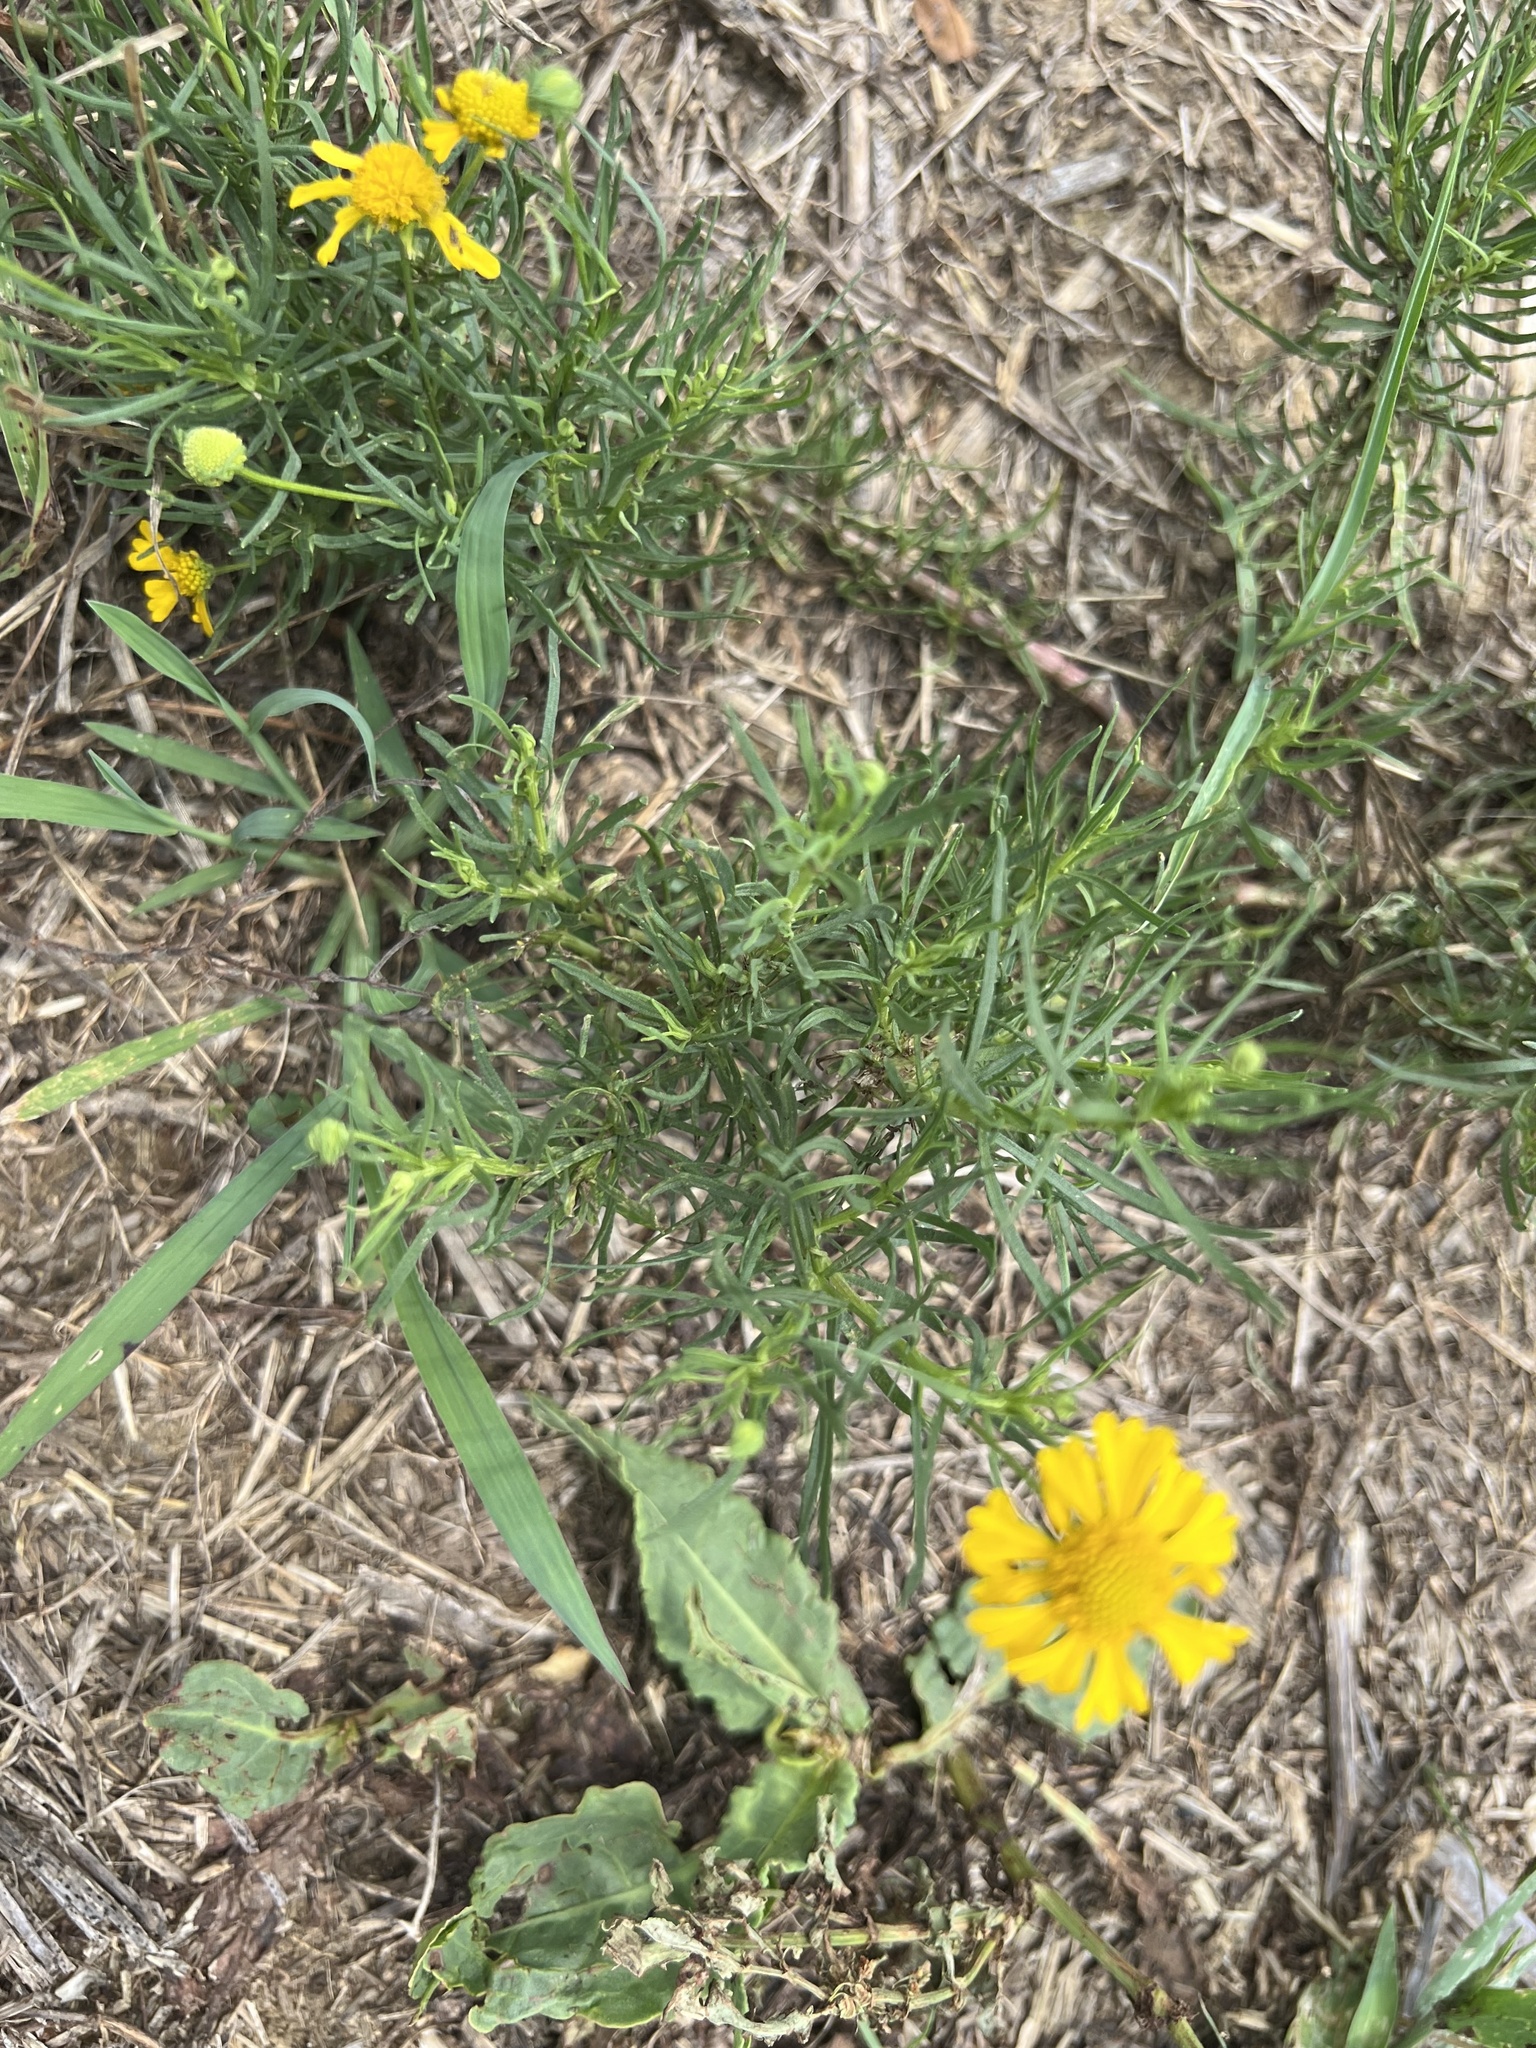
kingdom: Plantae
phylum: Tracheophyta
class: Magnoliopsida
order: Asterales
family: Asteraceae
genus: Helenium
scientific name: Helenium amarum
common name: Bitter sneezeweed
